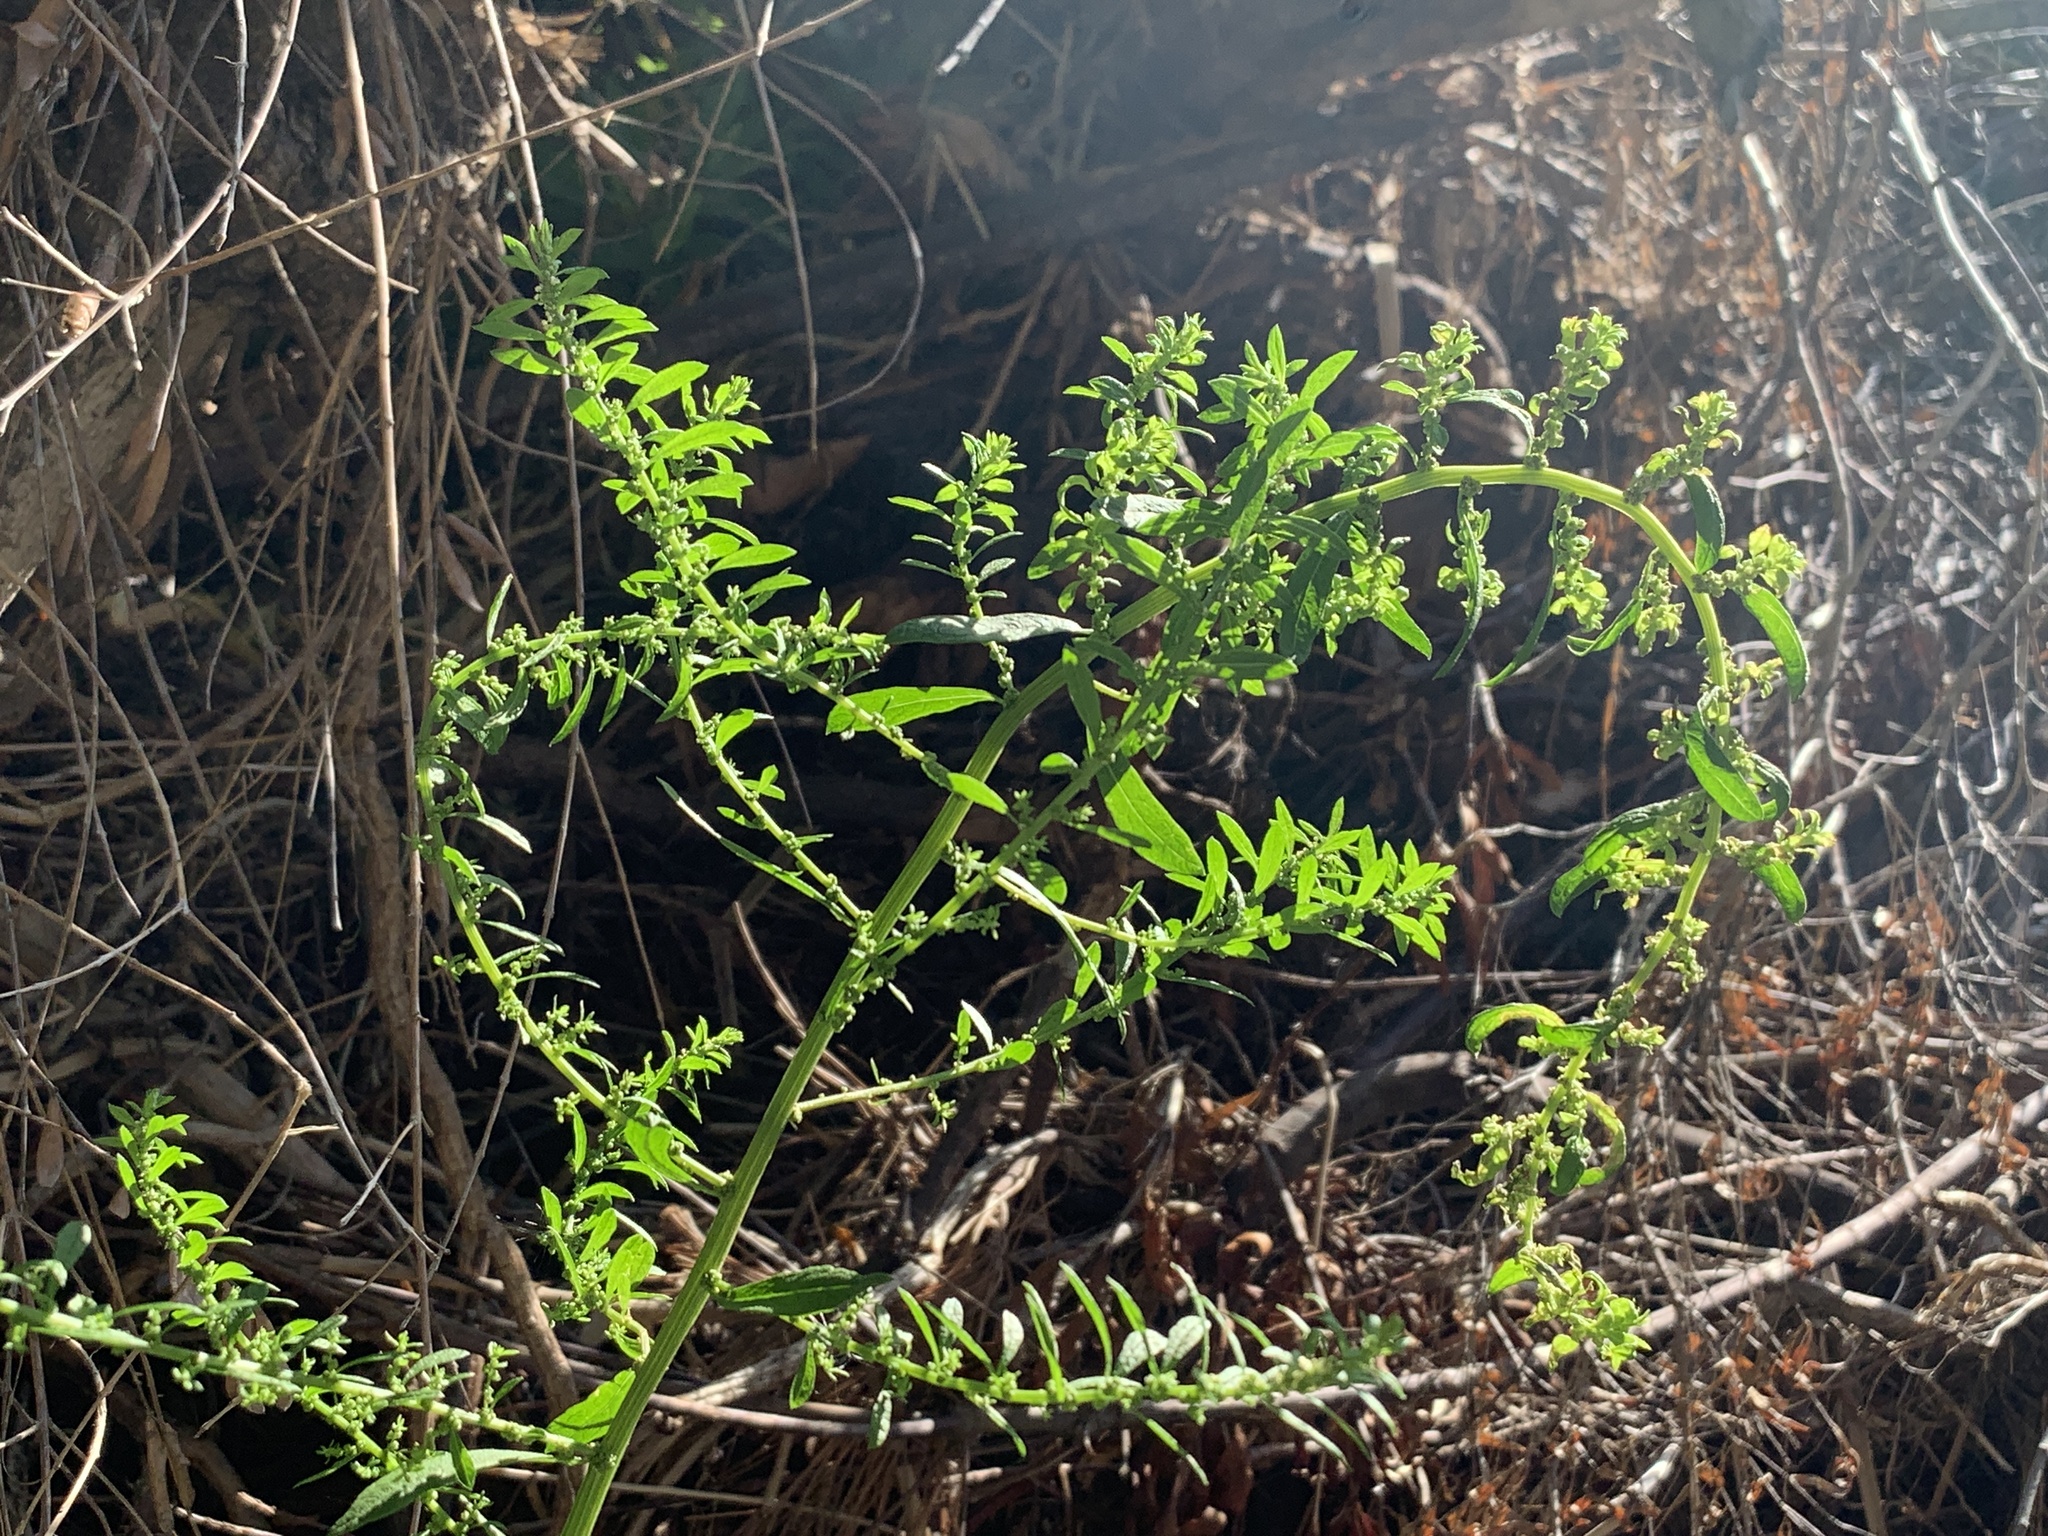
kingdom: Plantae
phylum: Tracheophyta
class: Magnoliopsida
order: Caryophyllales
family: Amaranthaceae
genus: Dysphania
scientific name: Dysphania ambrosioides
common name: Wormseed
